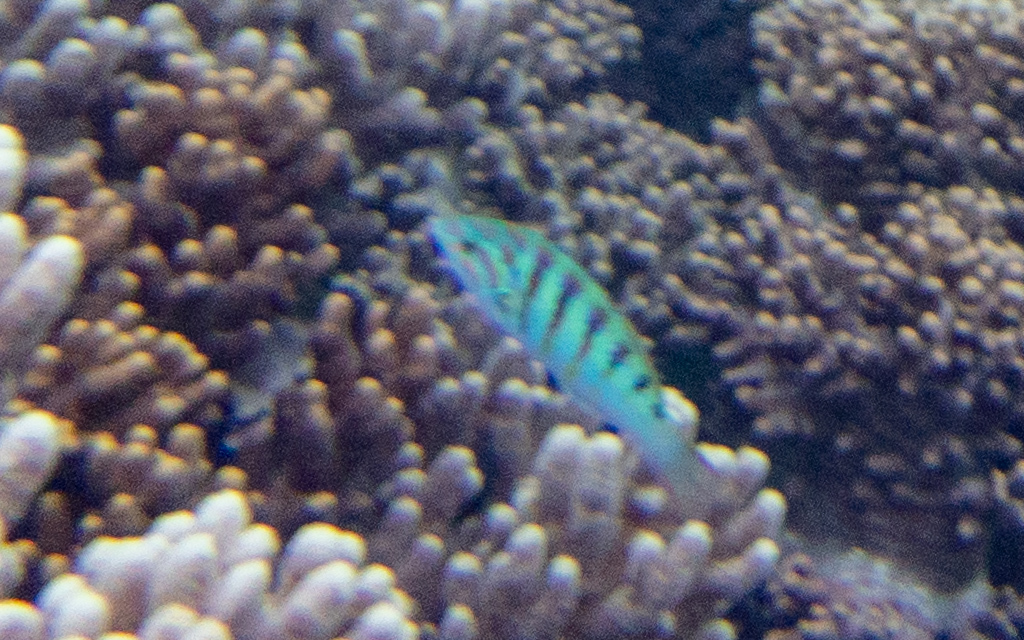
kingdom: Animalia
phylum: Chordata
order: Perciformes
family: Labridae
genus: Thalassoma
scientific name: Thalassoma hardwicke
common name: Sixbar wrasse
